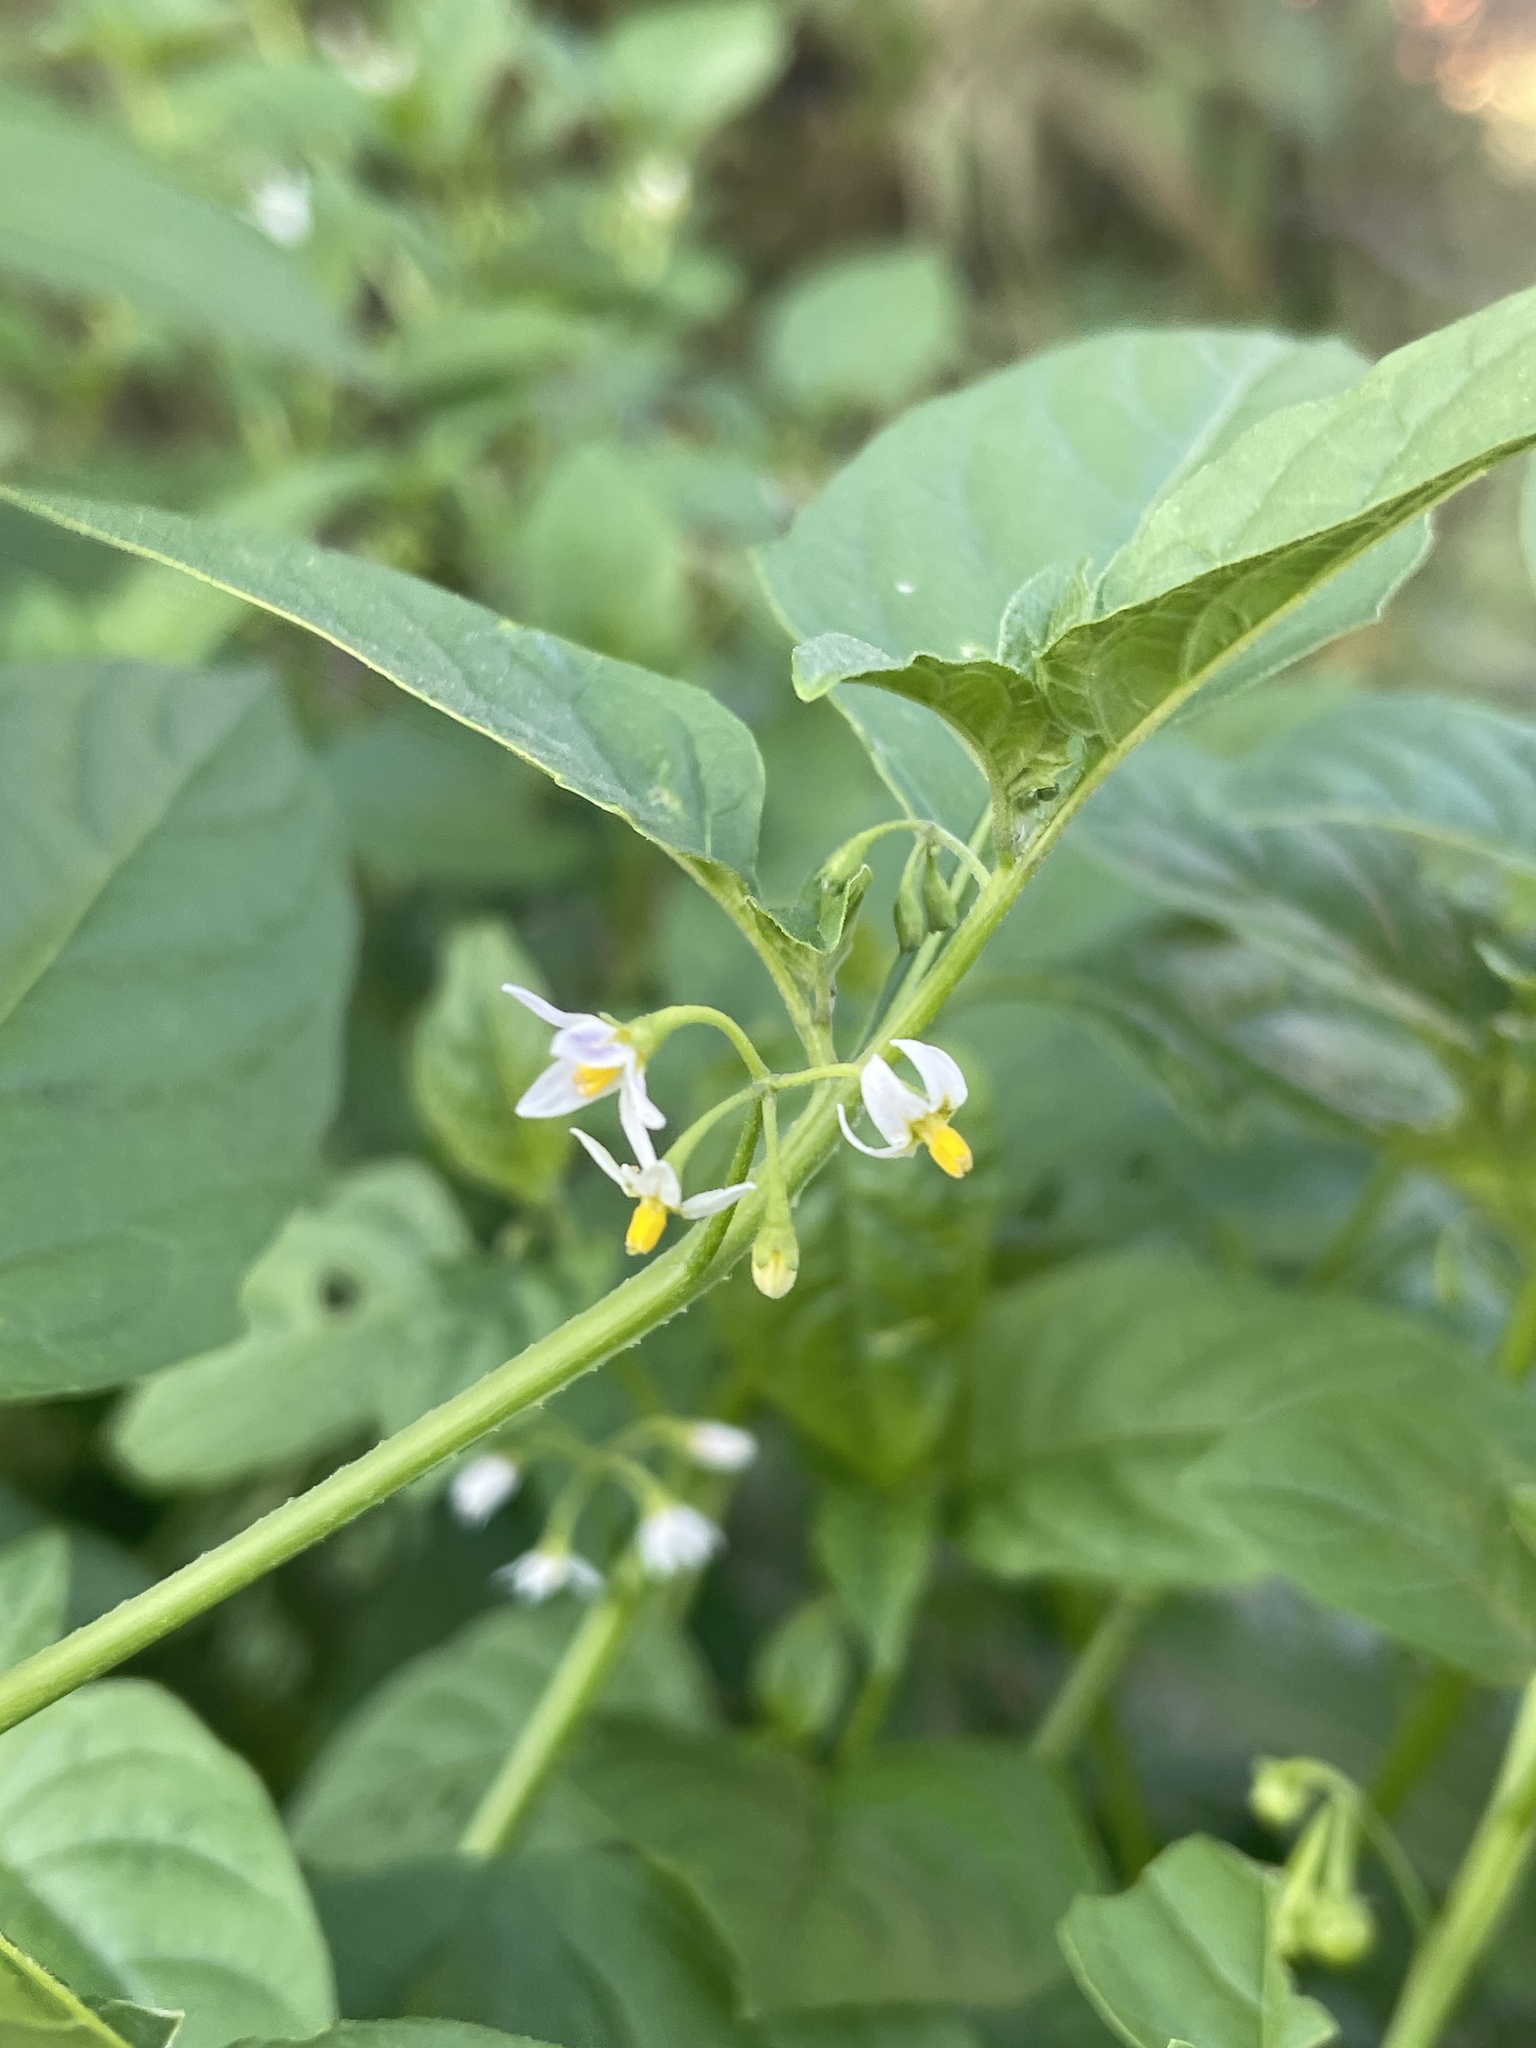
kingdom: Plantae
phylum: Tracheophyta
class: Magnoliopsida
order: Solanales
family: Solanaceae
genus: Solanum
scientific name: Solanum emulans
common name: Eastern black nightshade
